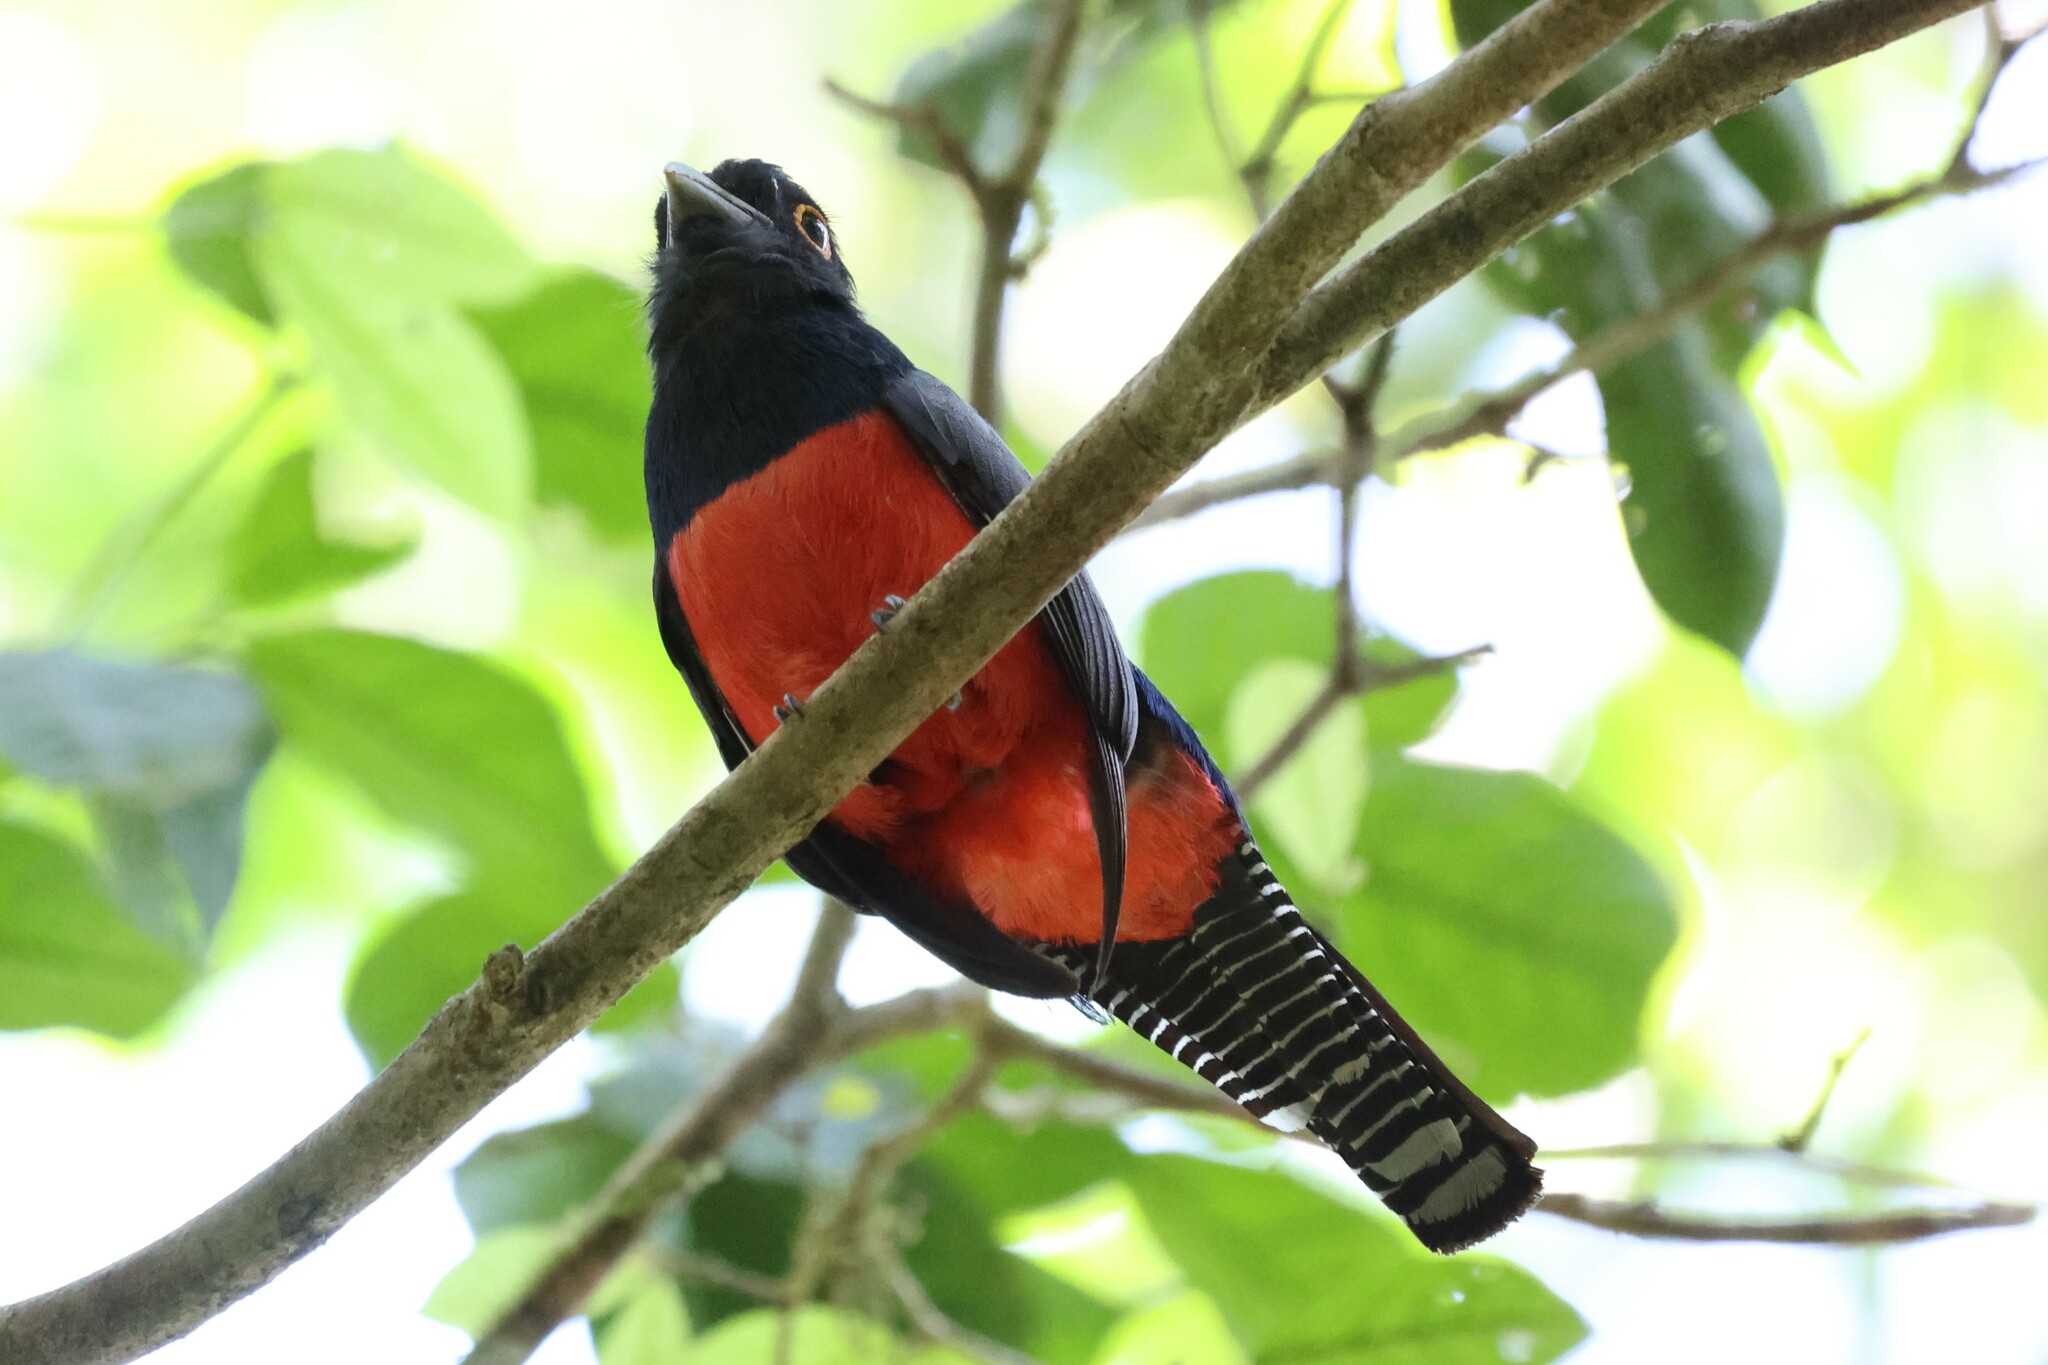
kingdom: Animalia
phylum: Chordata
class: Aves
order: Trogoniformes
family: Trogonidae
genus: Trogon
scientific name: Trogon curucui
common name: Blue-crowned trogon
